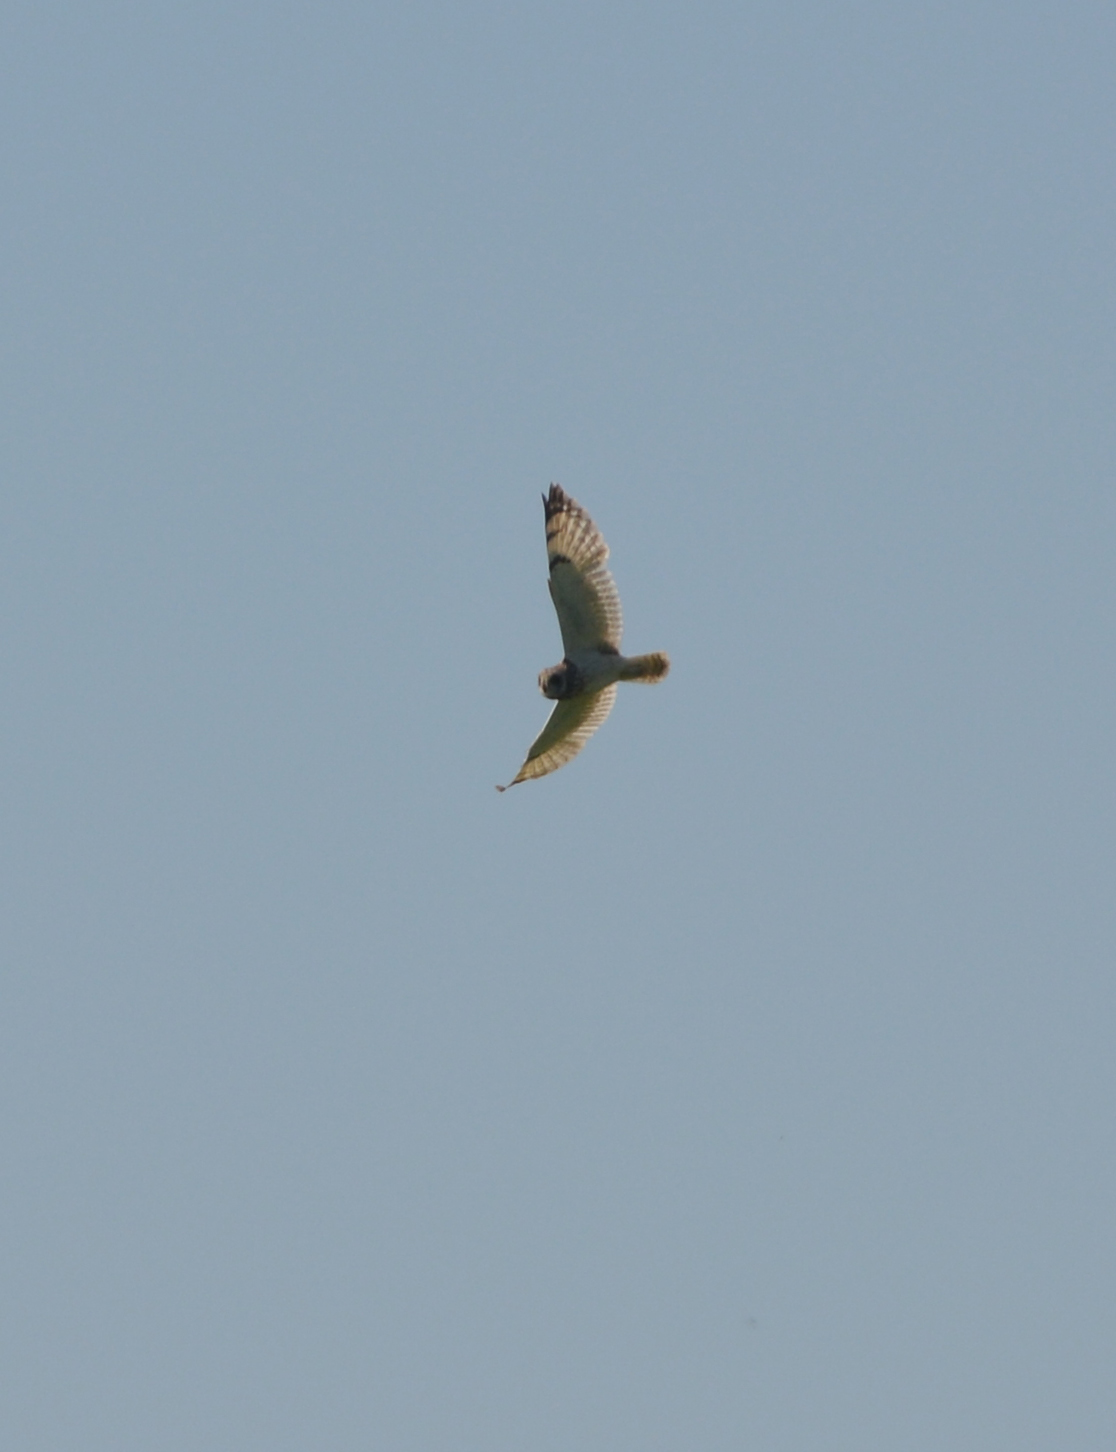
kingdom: Animalia
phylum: Chordata
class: Aves
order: Strigiformes
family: Strigidae
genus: Asio
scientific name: Asio flammeus
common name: Short-eared owl
